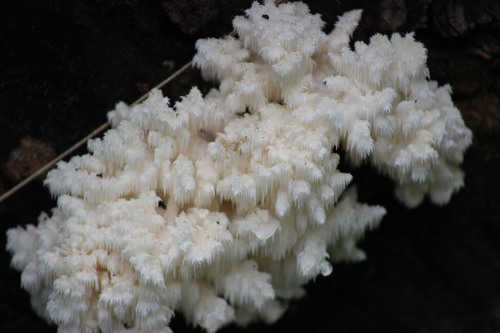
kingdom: Fungi
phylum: Basidiomycota
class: Agaricomycetes
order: Russulales
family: Hericiaceae
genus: Hericium
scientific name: Hericium coralloides
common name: Coral tooth
